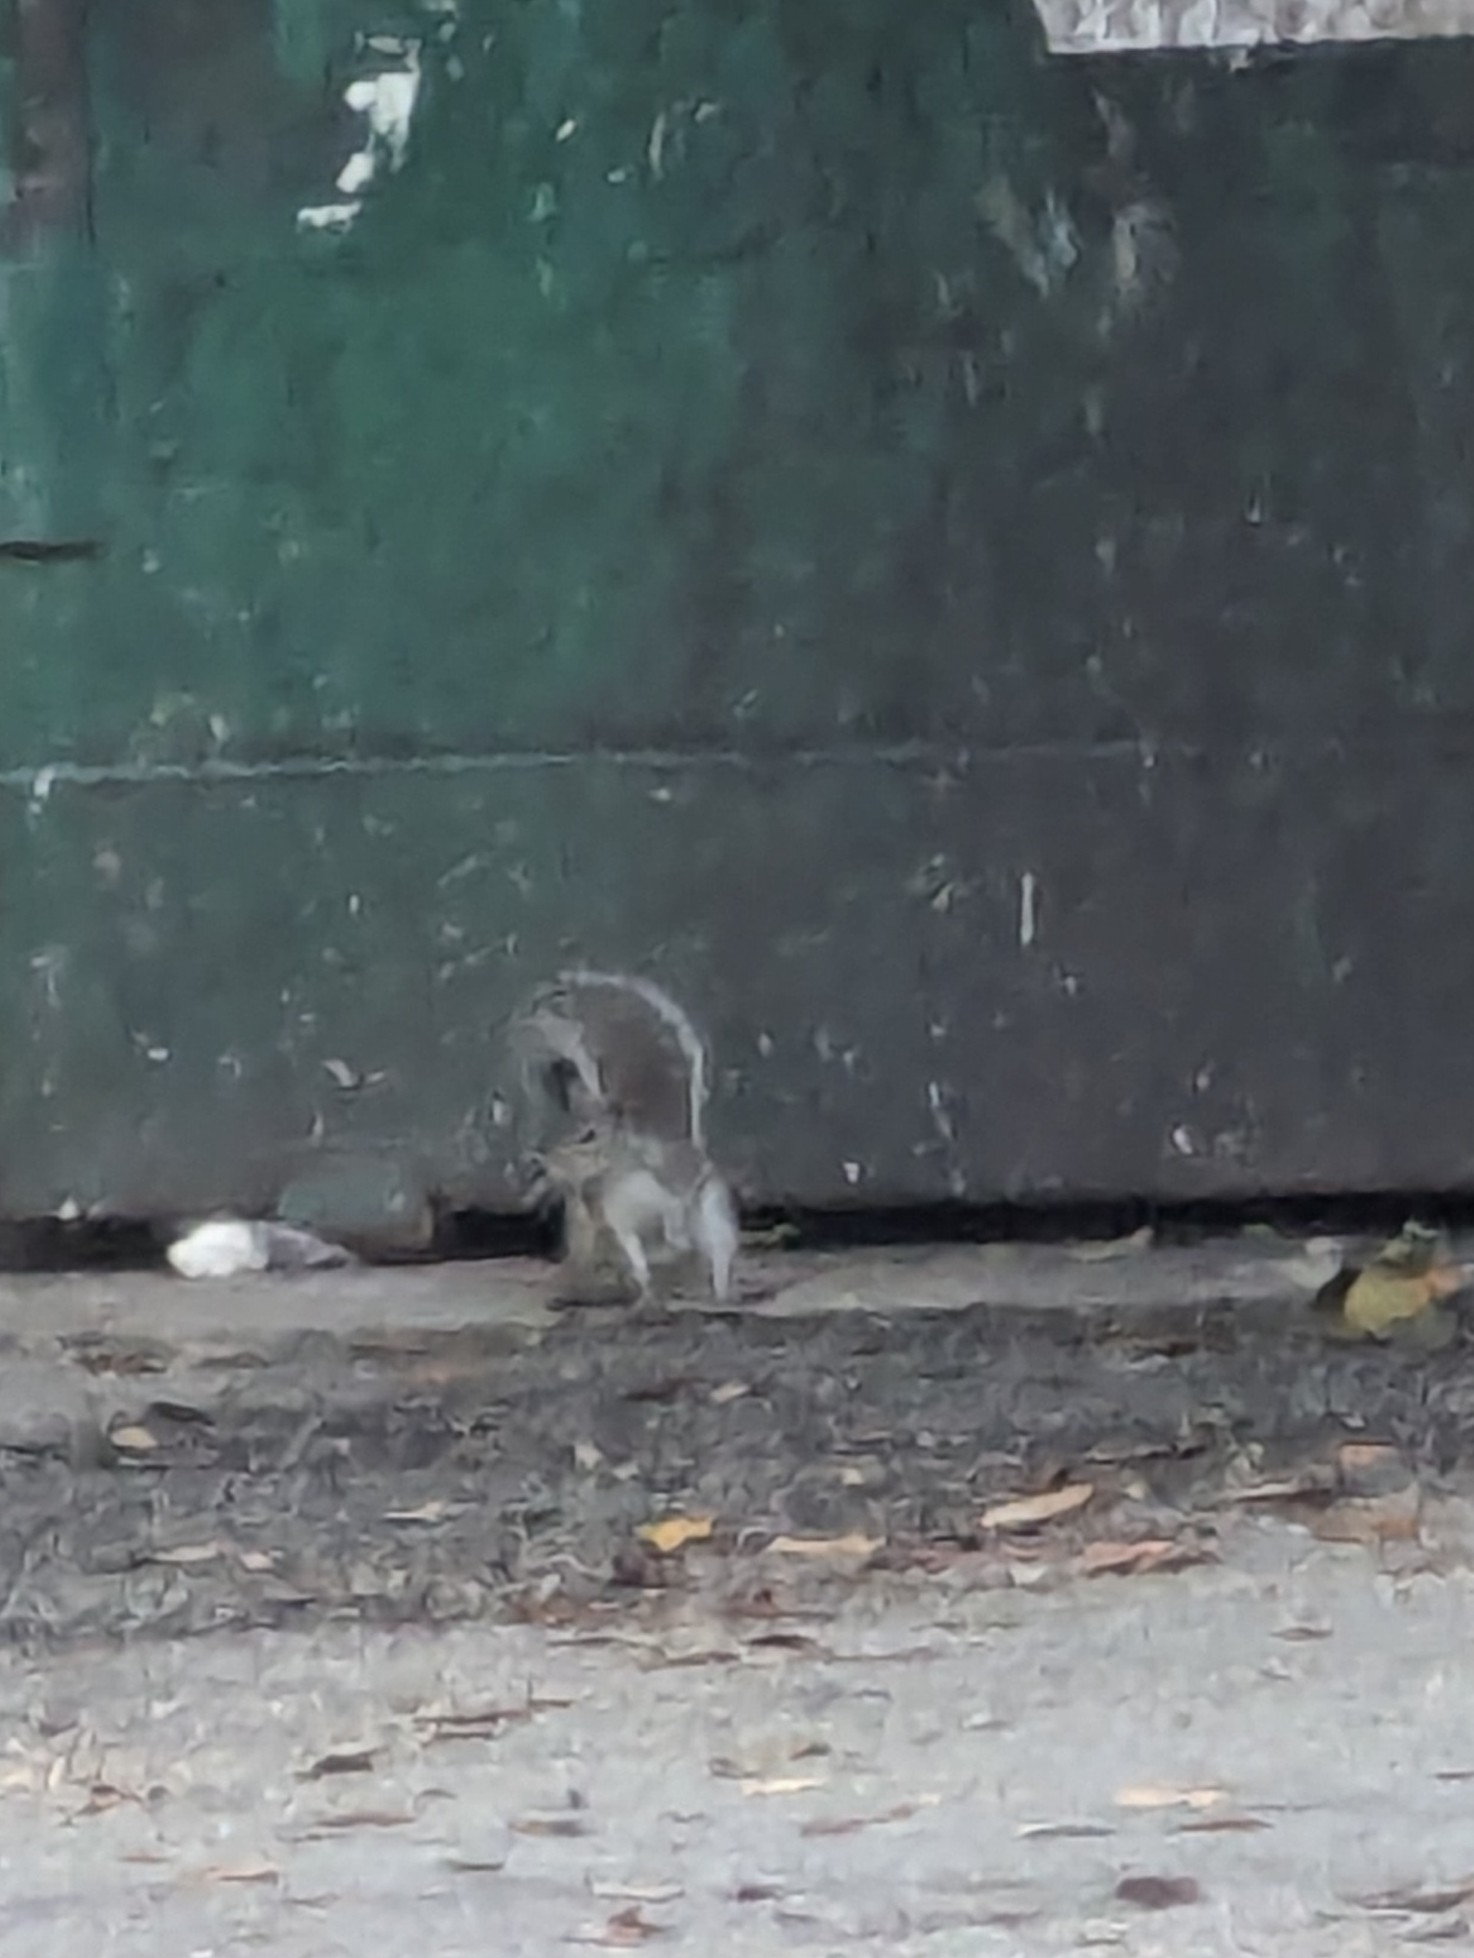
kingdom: Animalia
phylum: Chordata
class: Mammalia
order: Rodentia
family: Sciuridae
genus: Sciurus
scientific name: Sciurus carolinensis
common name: Eastern gray squirrel
